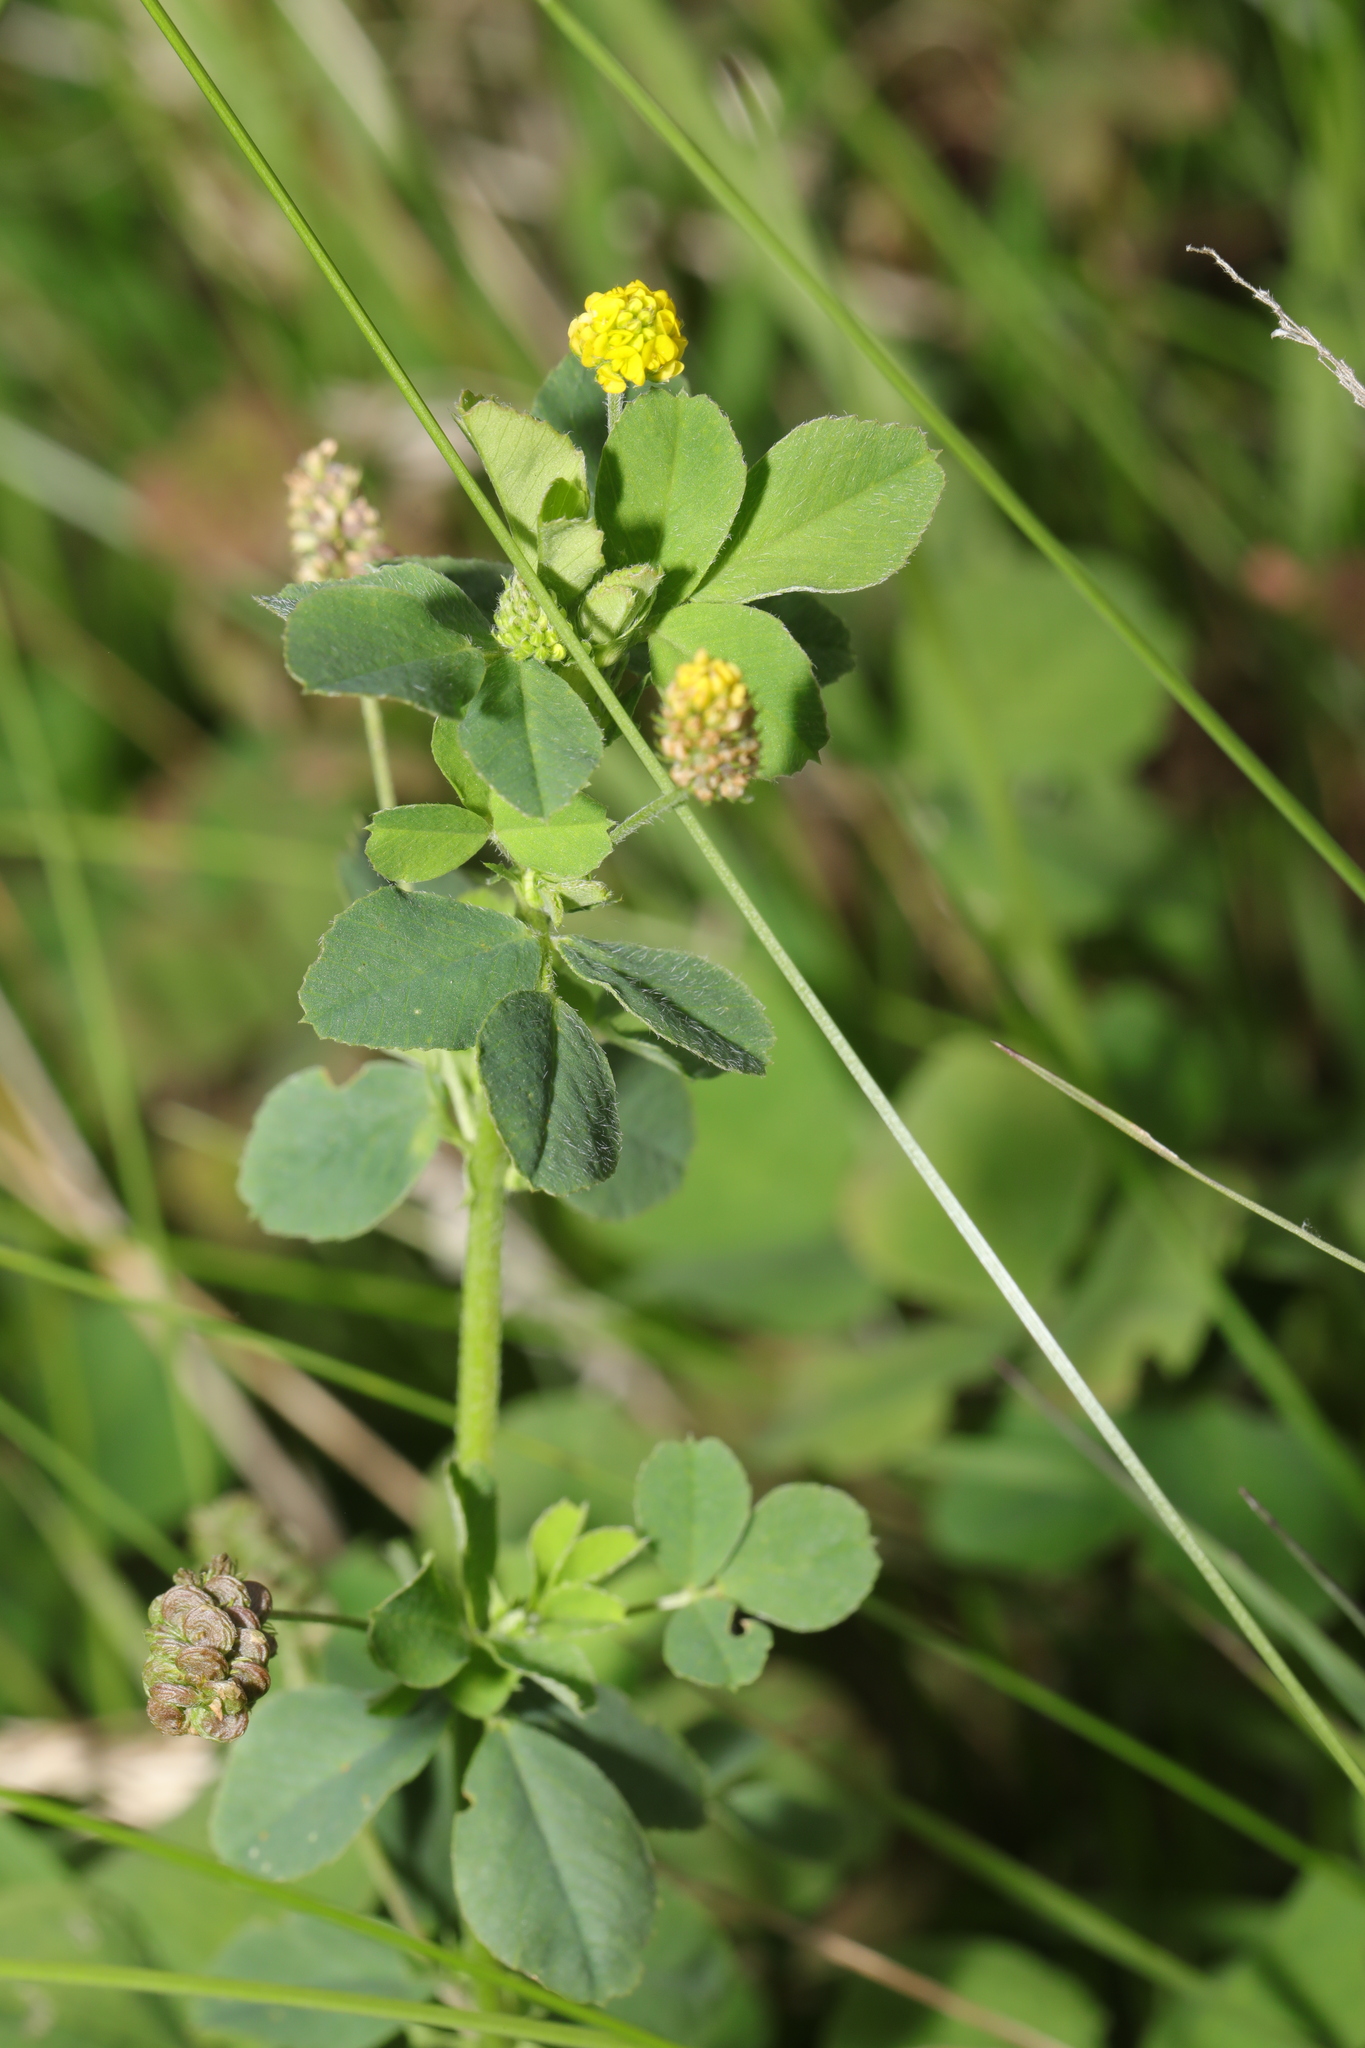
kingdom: Plantae
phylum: Tracheophyta
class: Magnoliopsida
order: Fabales
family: Fabaceae
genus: Medicago
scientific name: Medicago lupulina
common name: Black medick
